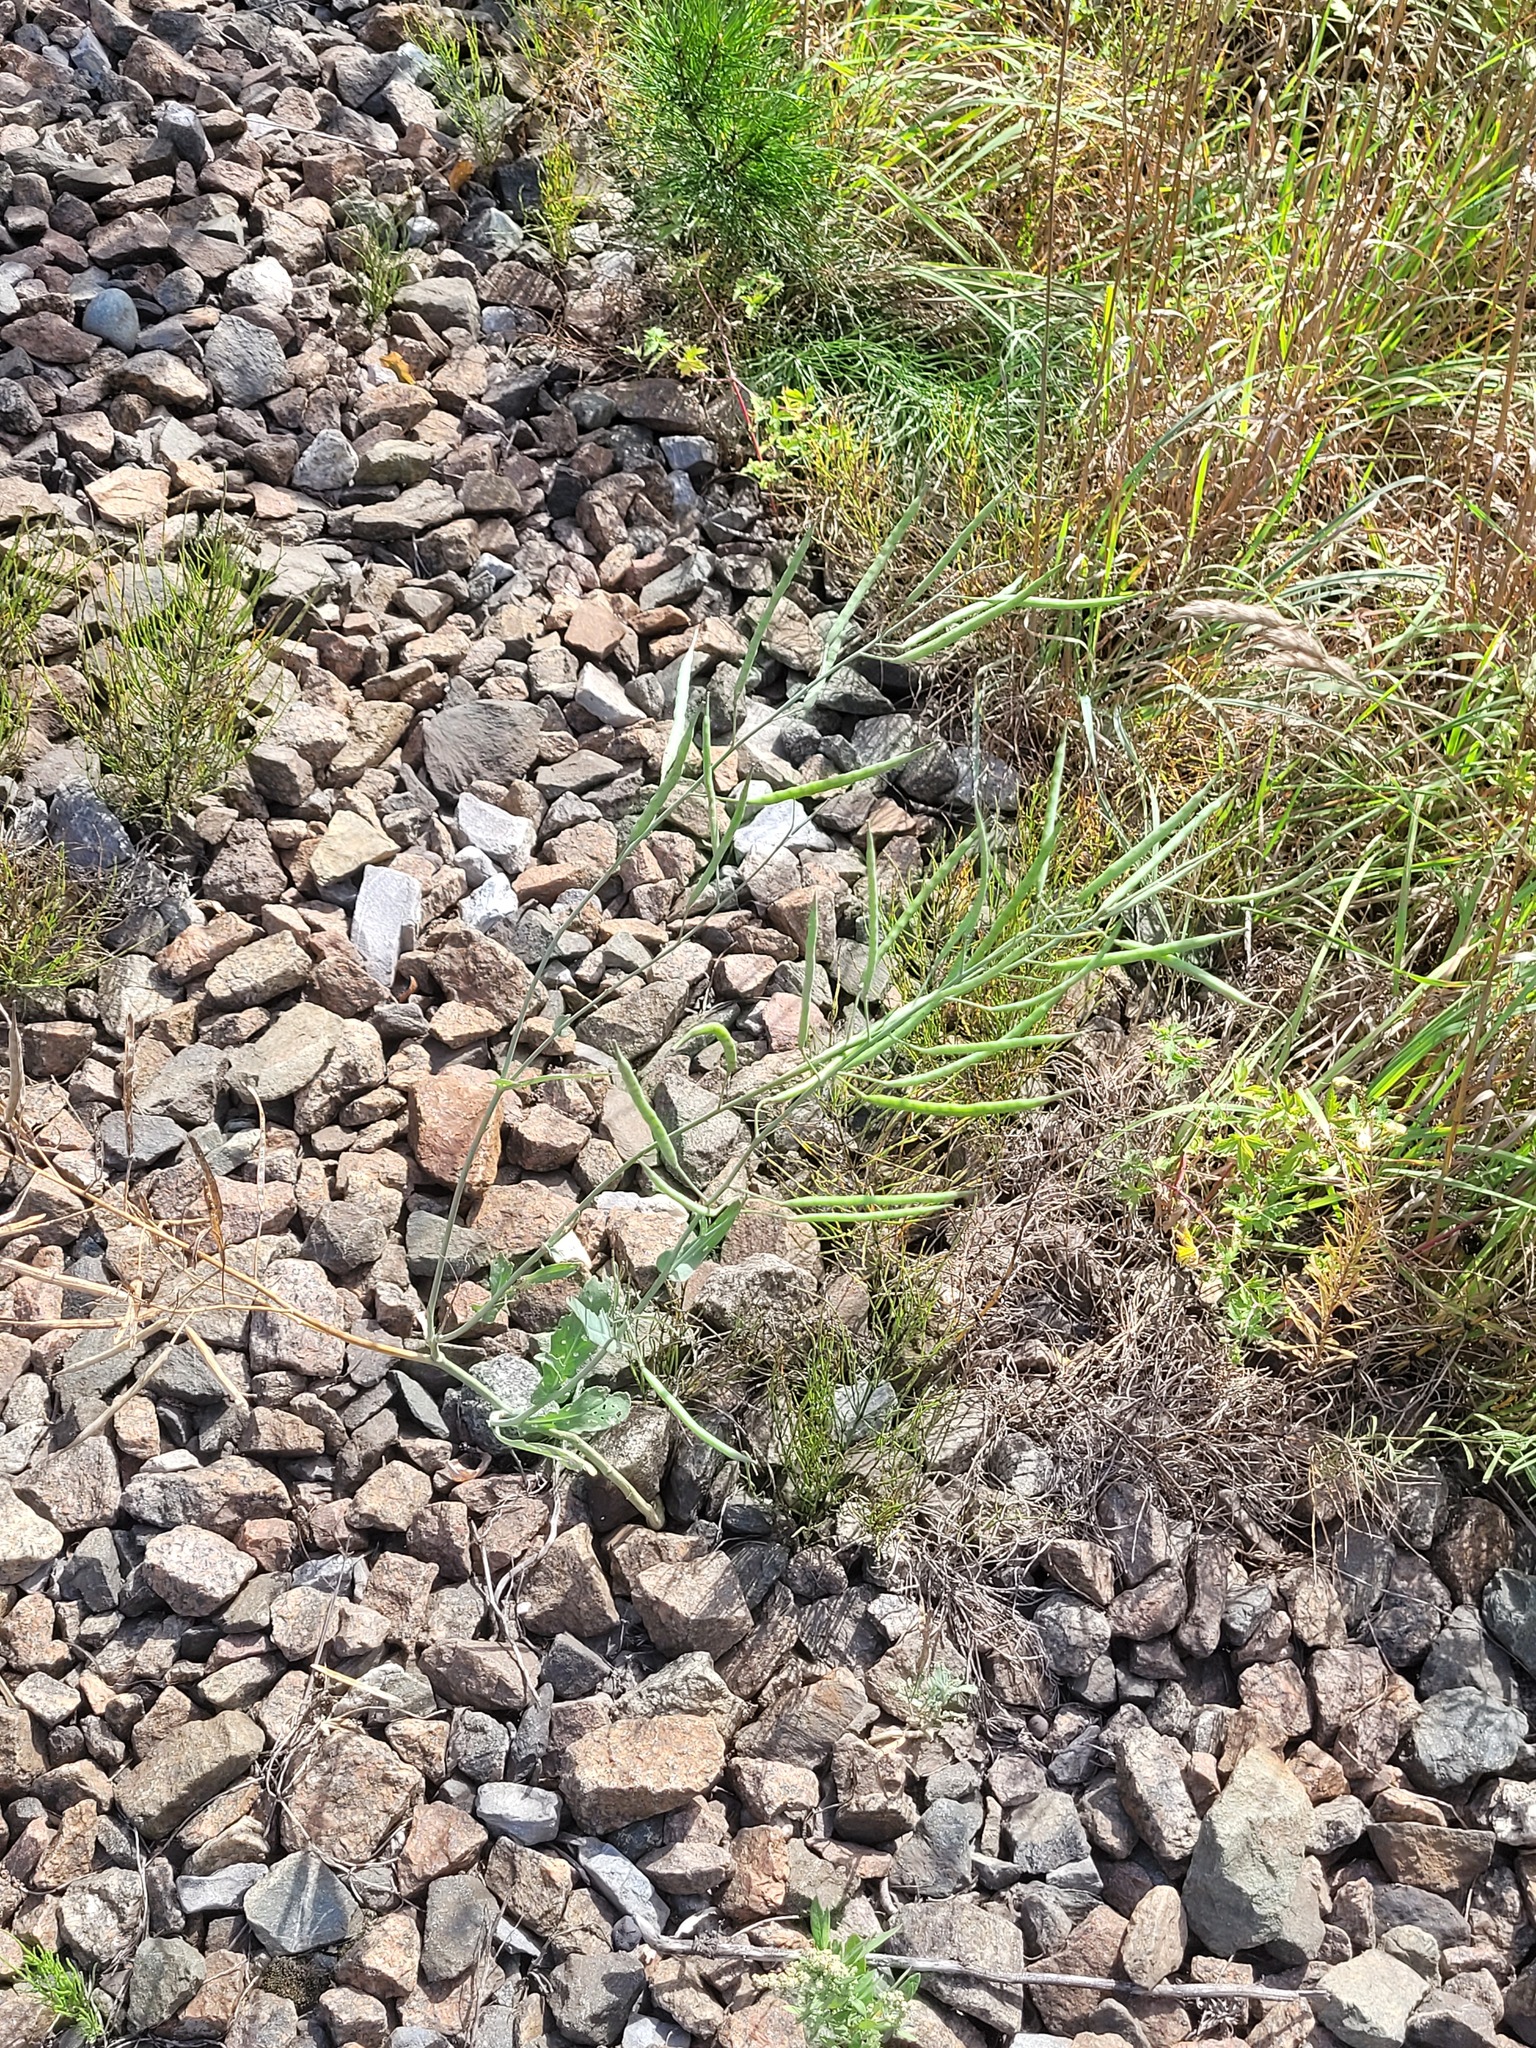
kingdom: Plantae
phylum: Tracheophyta
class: Magnoliopsida
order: Brassicales
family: Brassicaceae
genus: Brassica
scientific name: Brassica napus
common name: Rape
